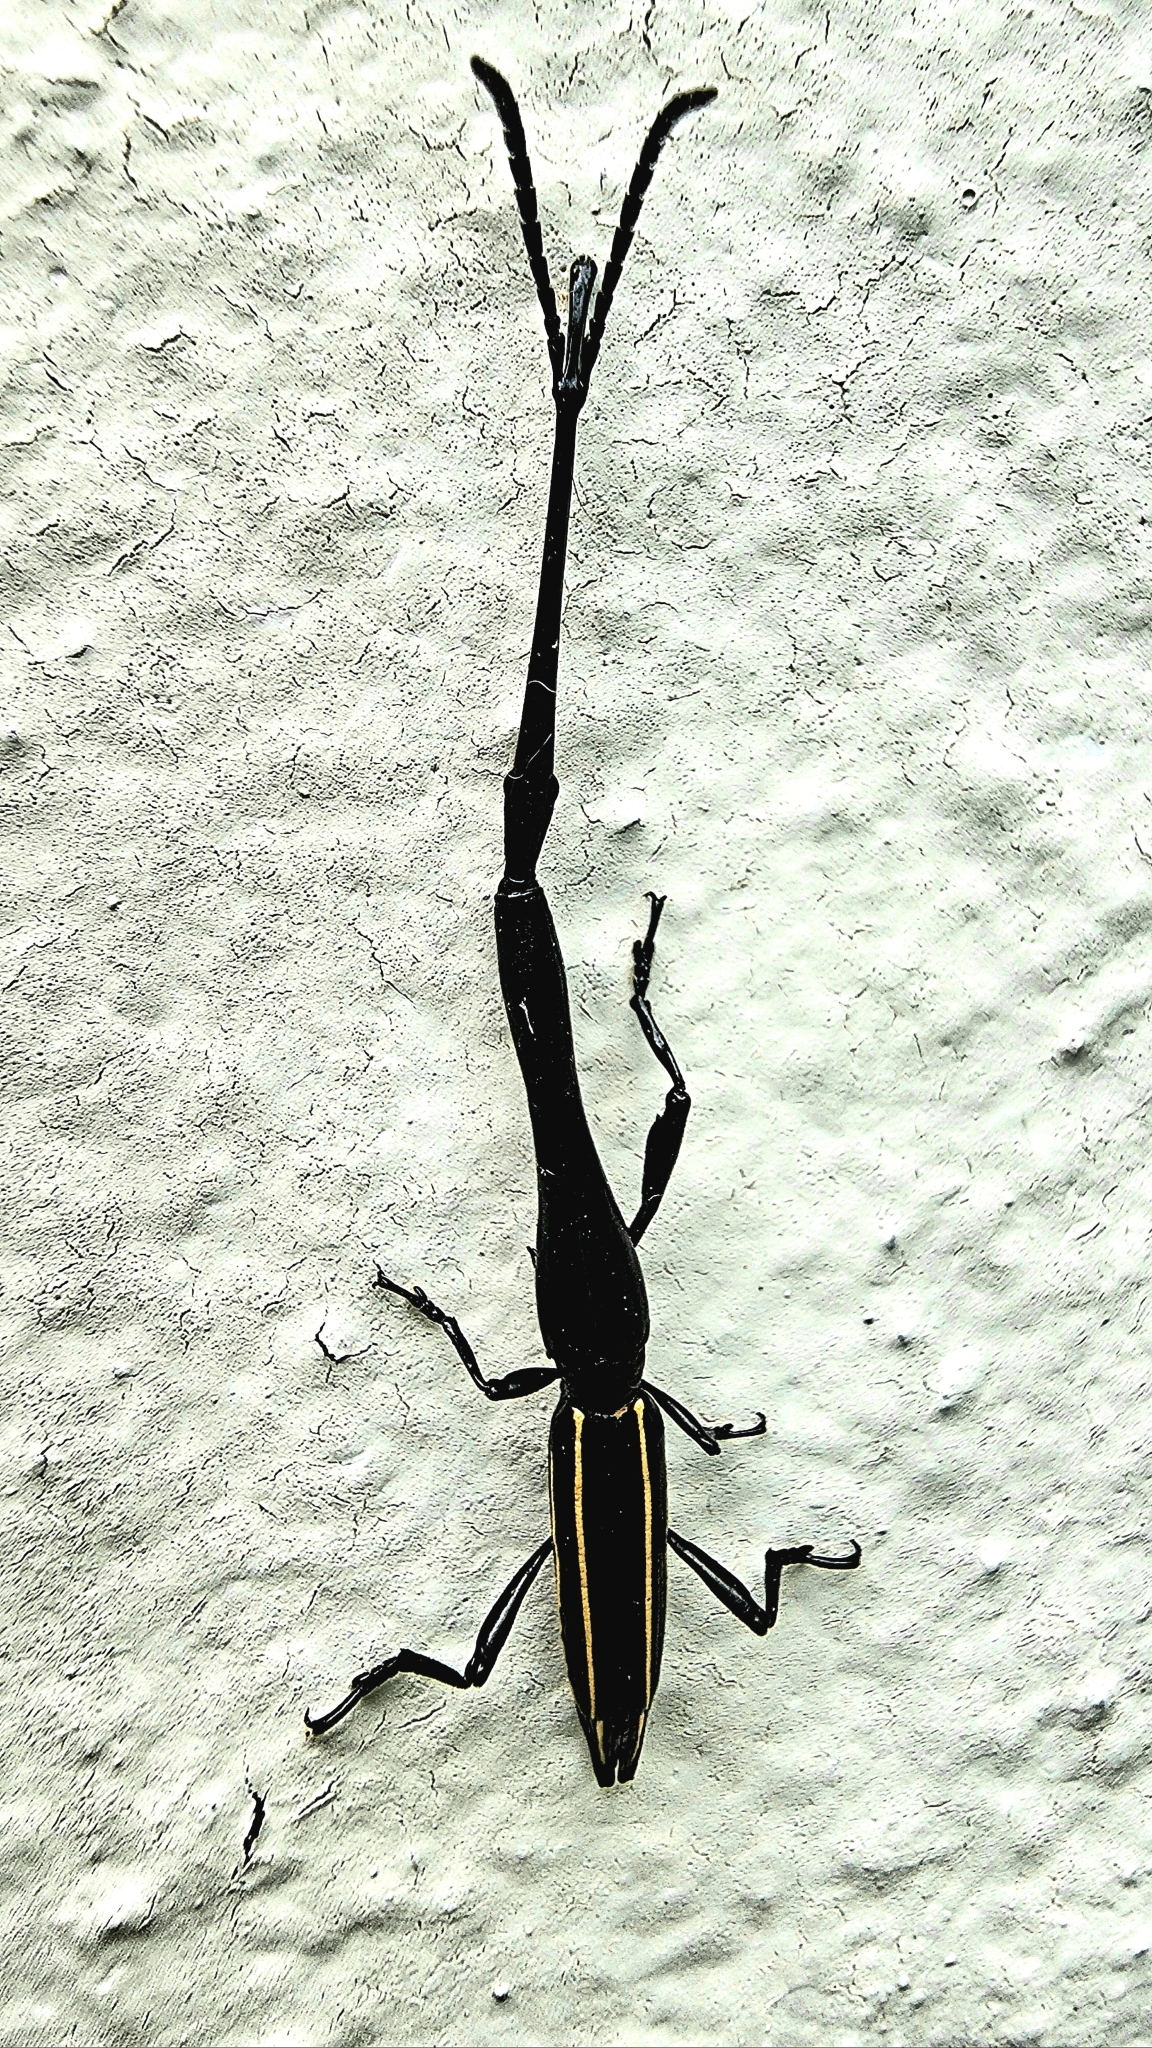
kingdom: Animalia
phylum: Arthropoda
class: Insecta
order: Coleoptera
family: Brentidae
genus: Brentus
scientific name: Brentus anchorago
